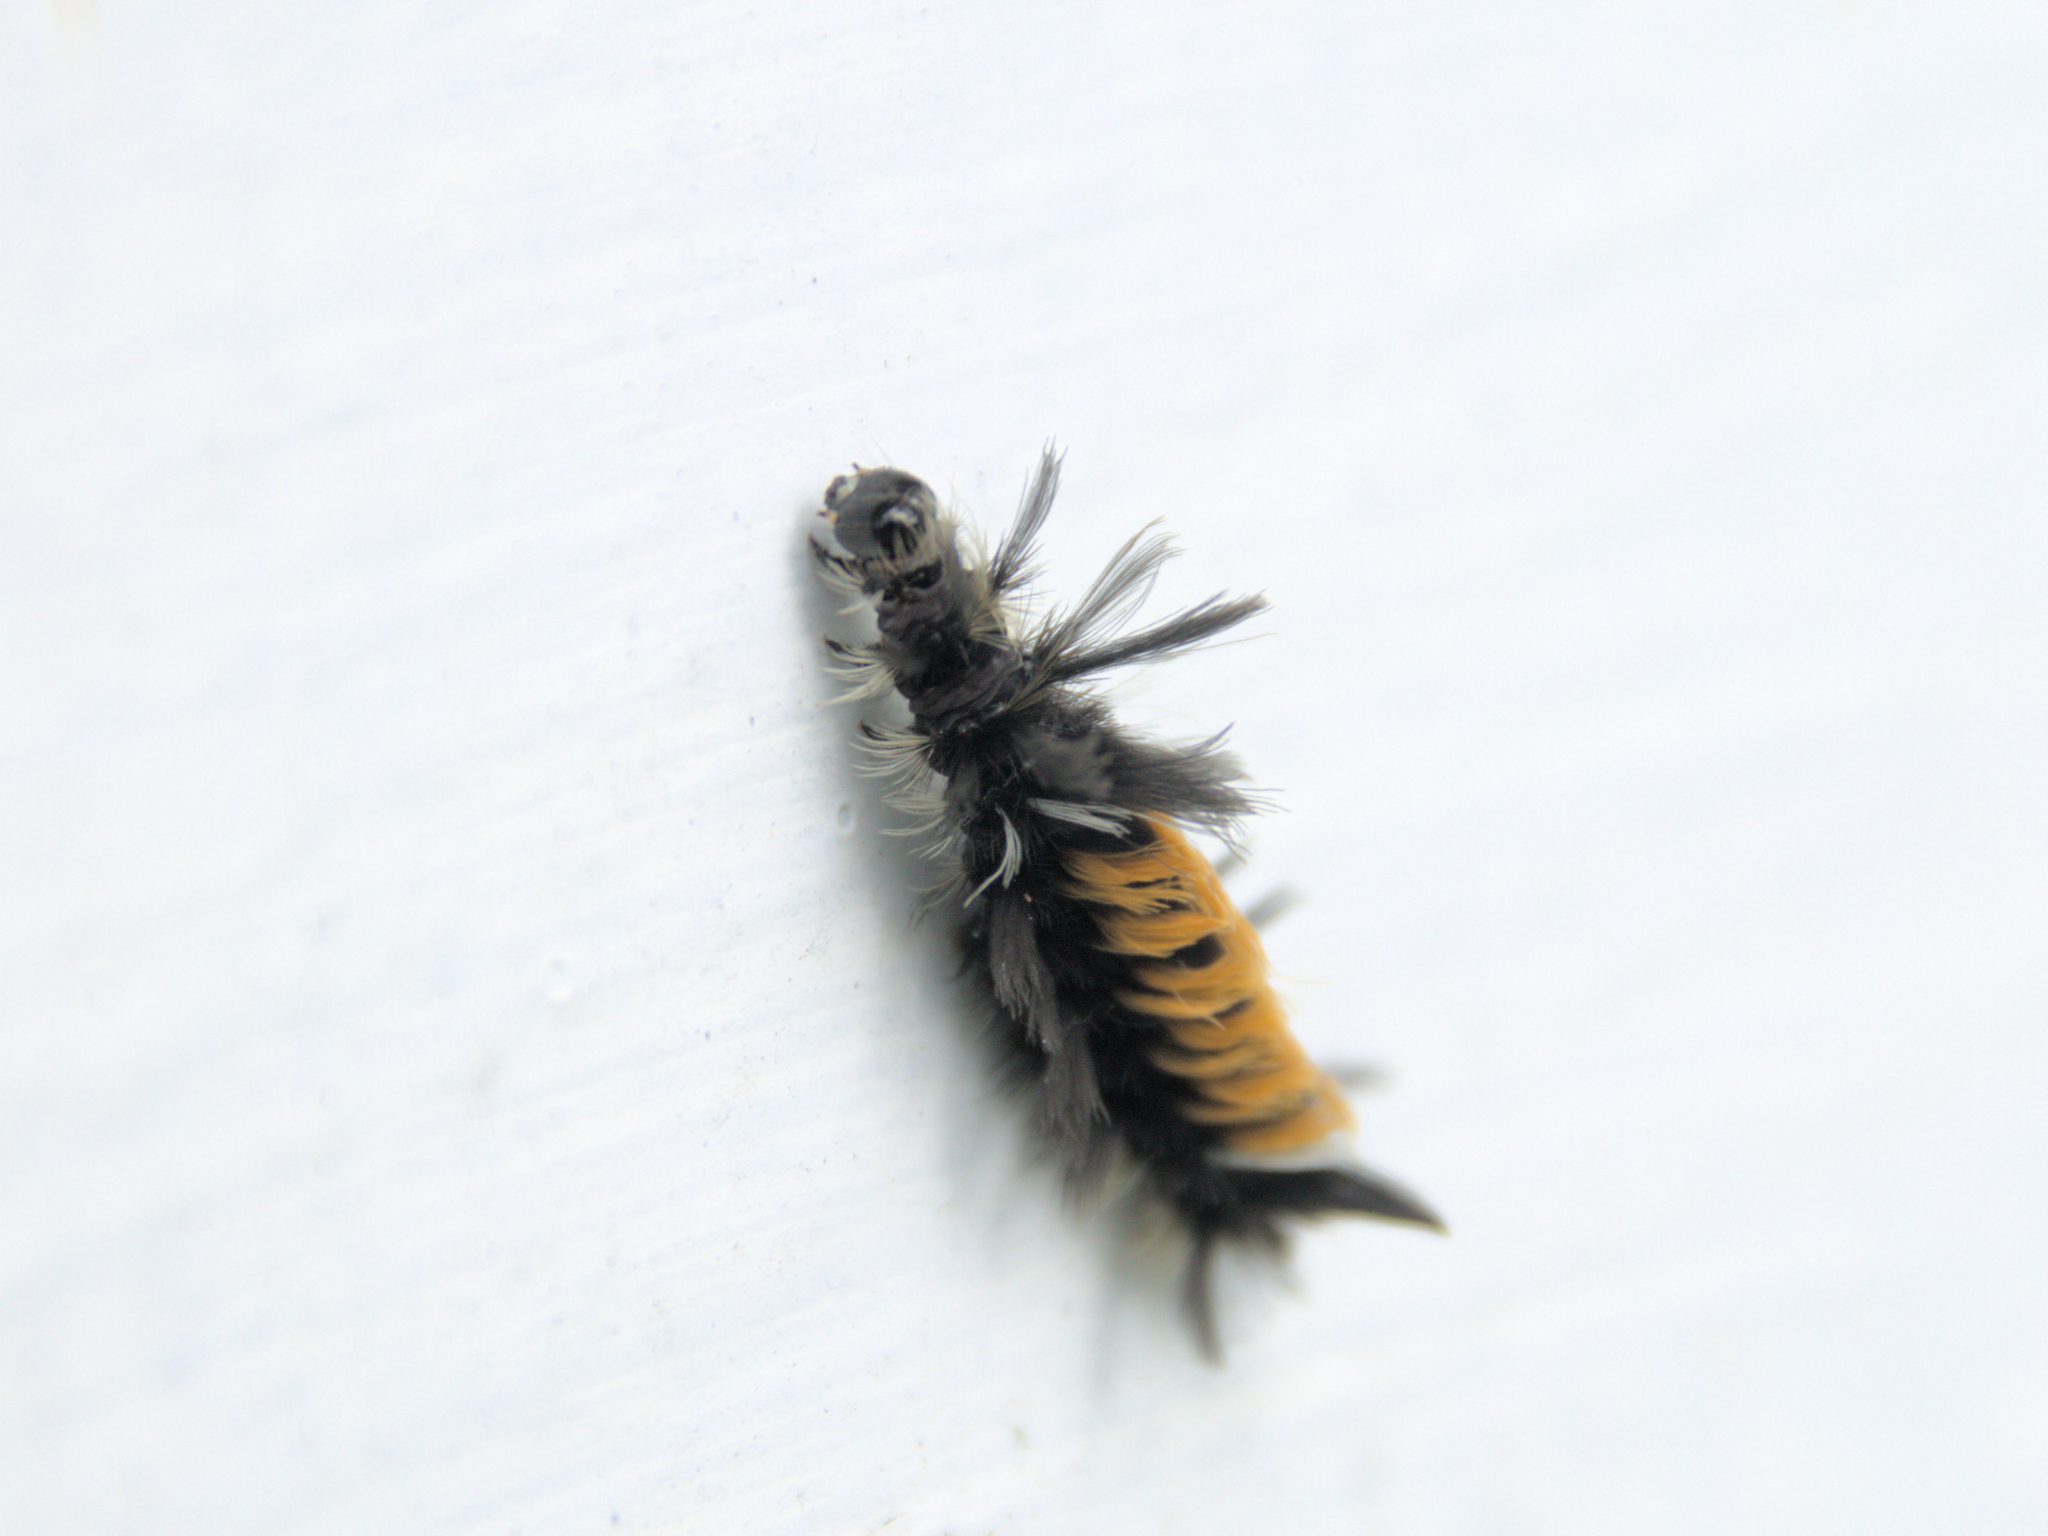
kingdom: Animalia
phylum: Arthropoda
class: Insecta
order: Lepidoptera
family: Erebidae
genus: Euchaetes
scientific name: Euchaetes egle
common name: Milkweed tussock moth
